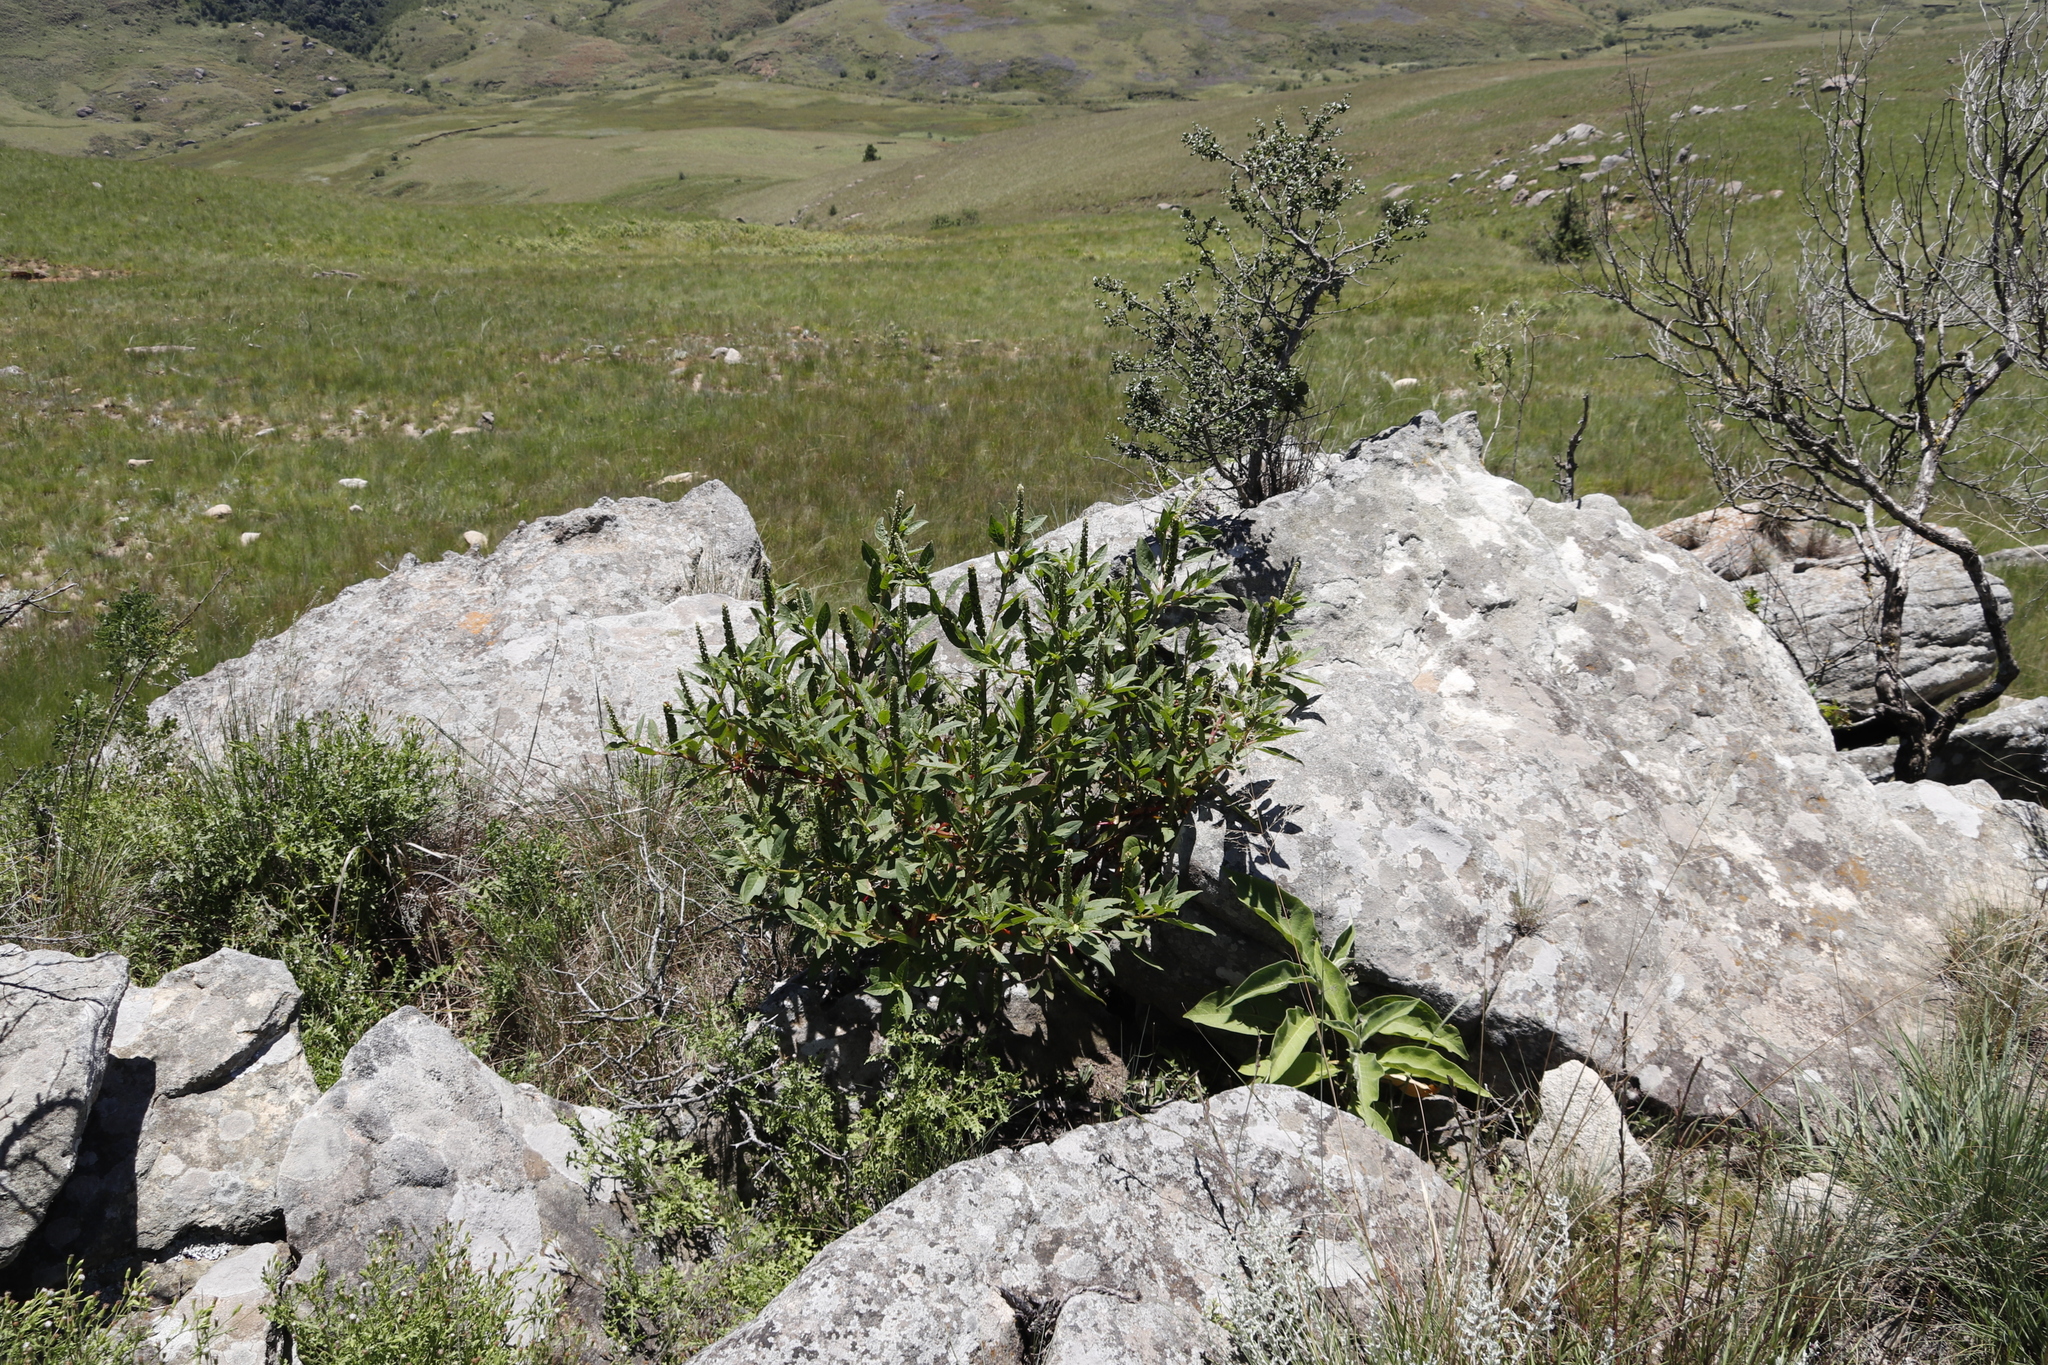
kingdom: Plantae
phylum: Tracheophyta
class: Magnoliopsida
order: Caryophyllales
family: Phytolaccaceae
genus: Phytolacca
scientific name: Phytolacca icosandra
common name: Button pokeweed
